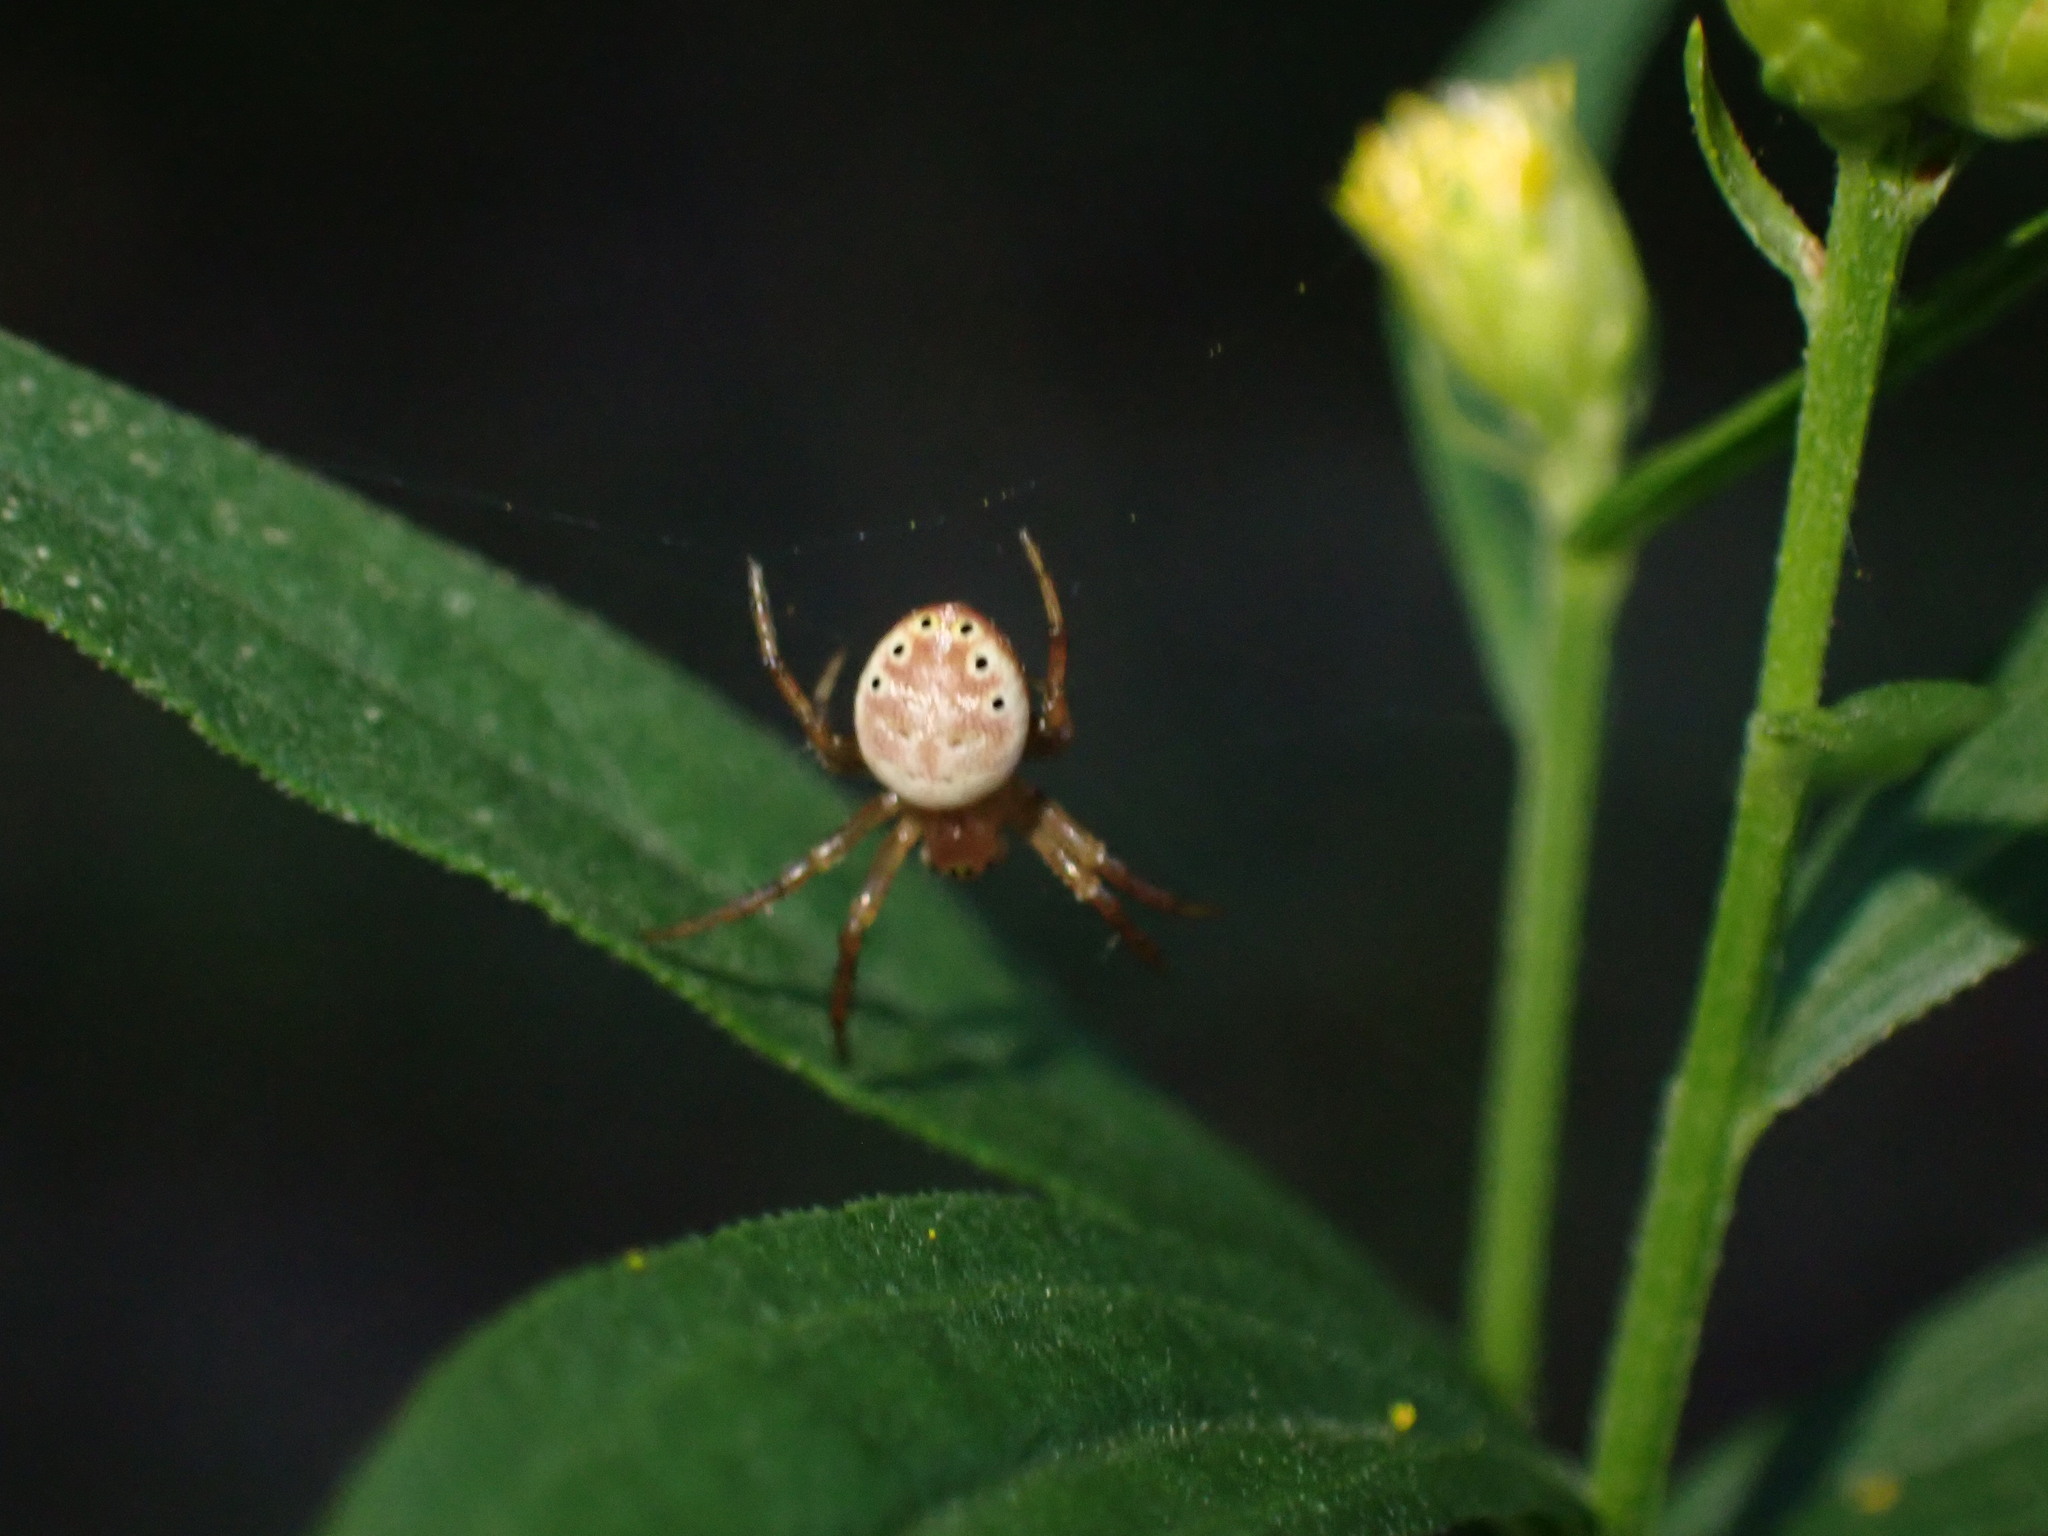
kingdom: Animalia
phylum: Arthropoda
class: Arachnida
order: Araneae
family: Araneidae
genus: Araniella
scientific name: Araniella displicata
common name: Sixspotted orb weaver
